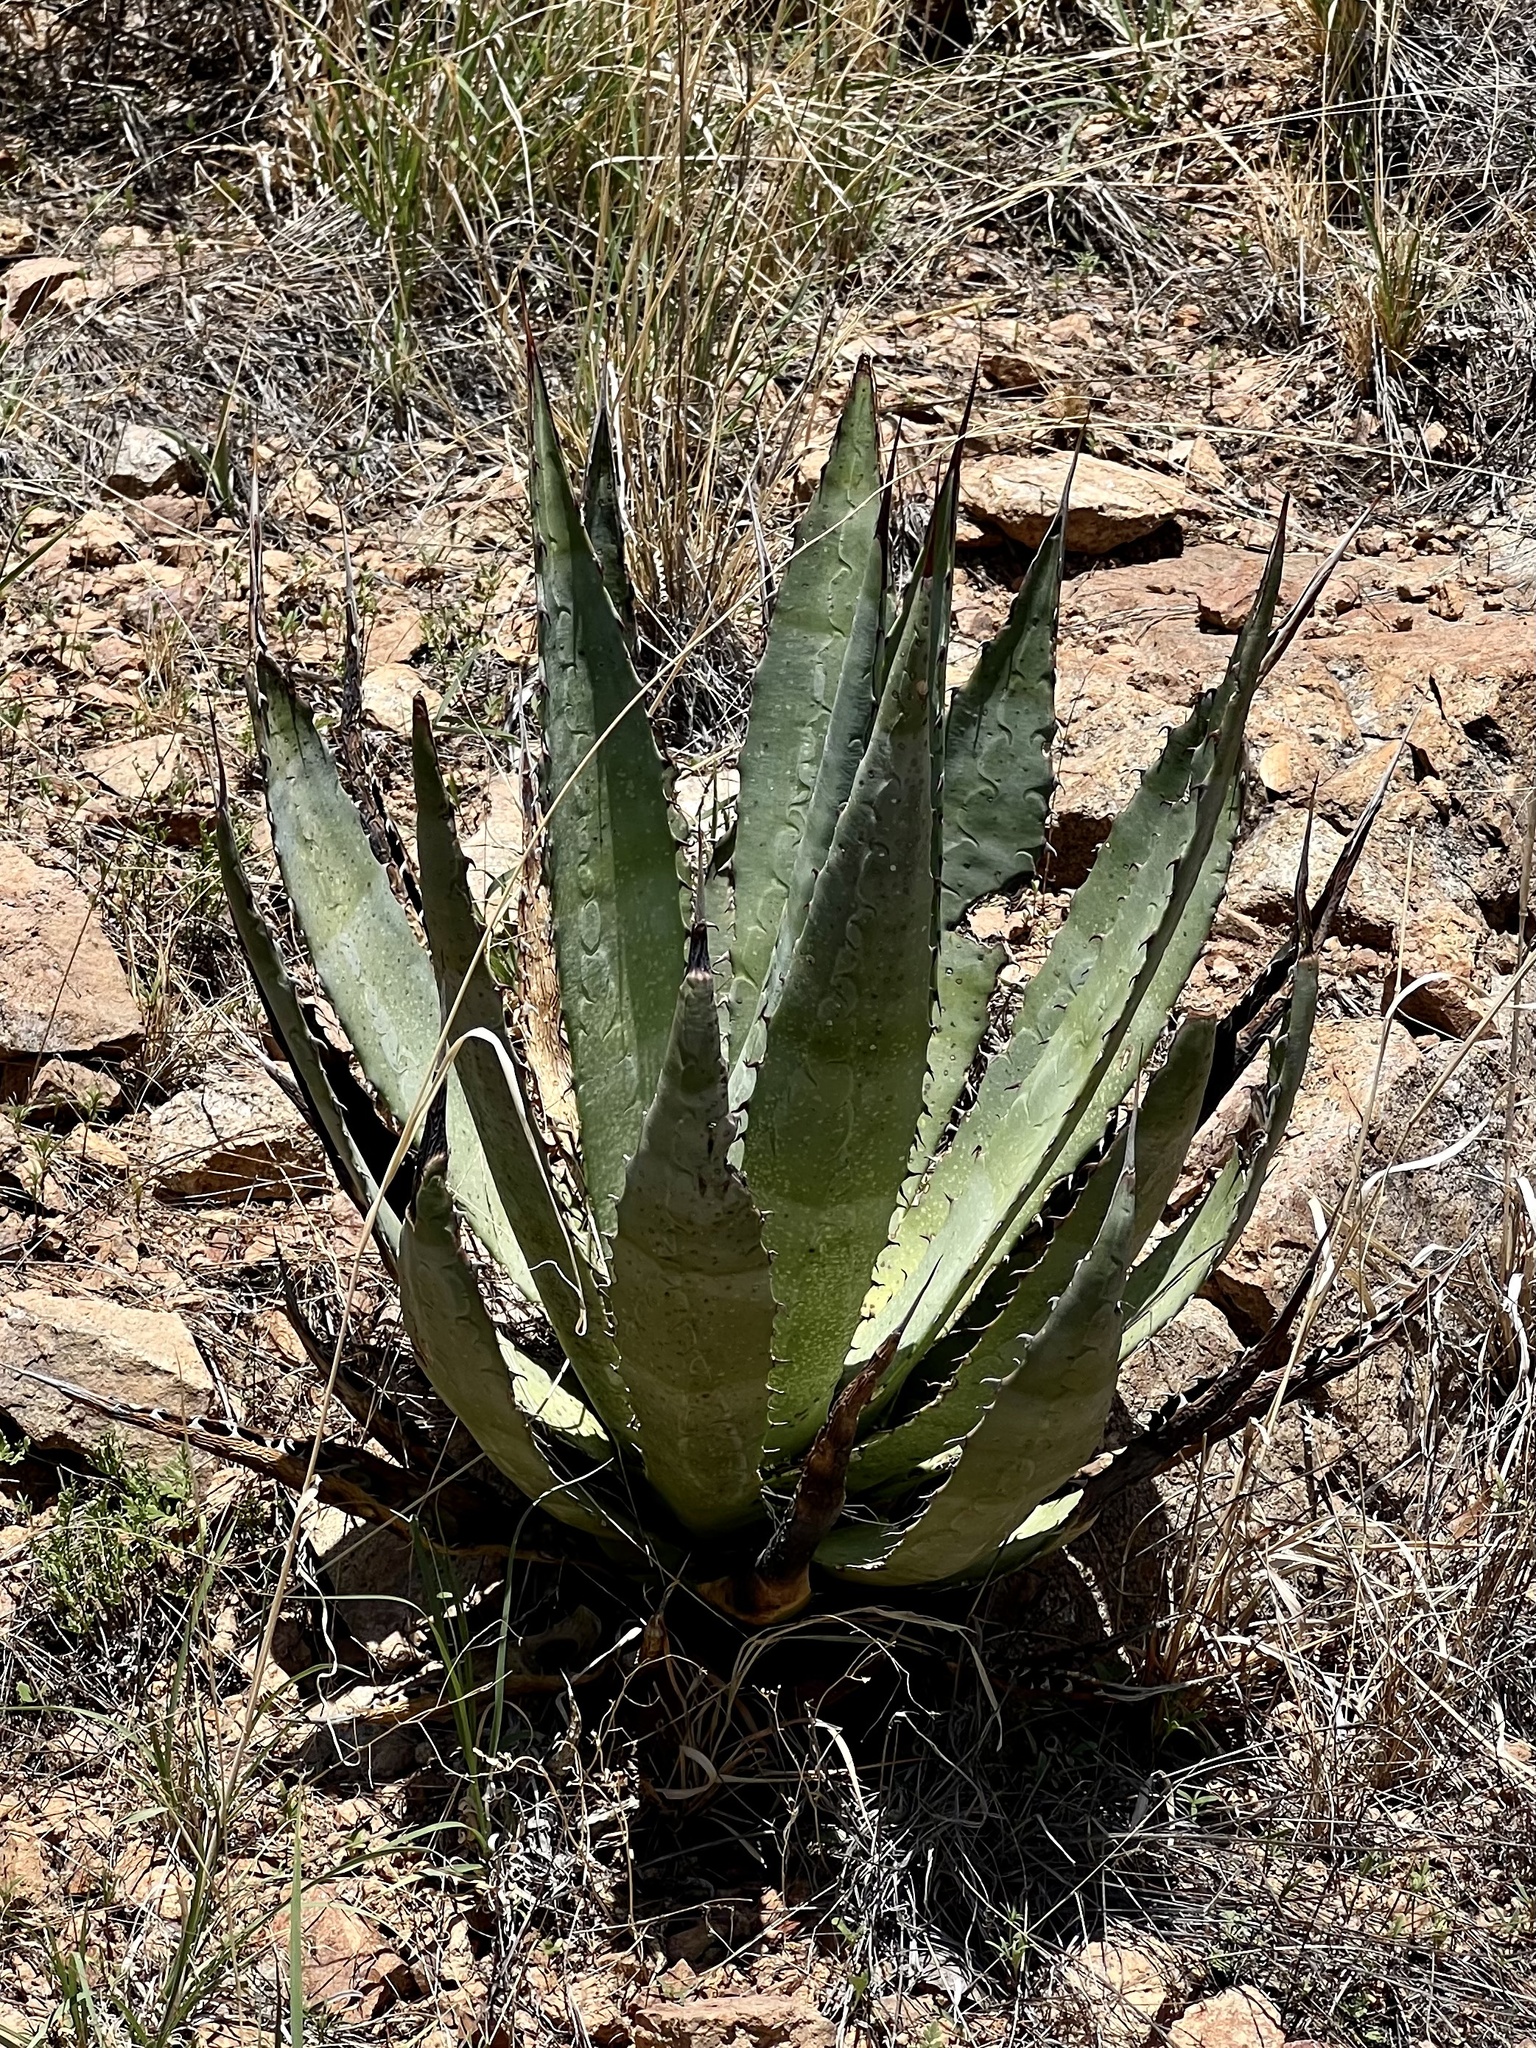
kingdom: Plantae
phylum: Tracheophyta
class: Liliopsida
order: Asparagales
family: Asparagaceae
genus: Agave
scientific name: Agave palmeri
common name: Palmer agave
